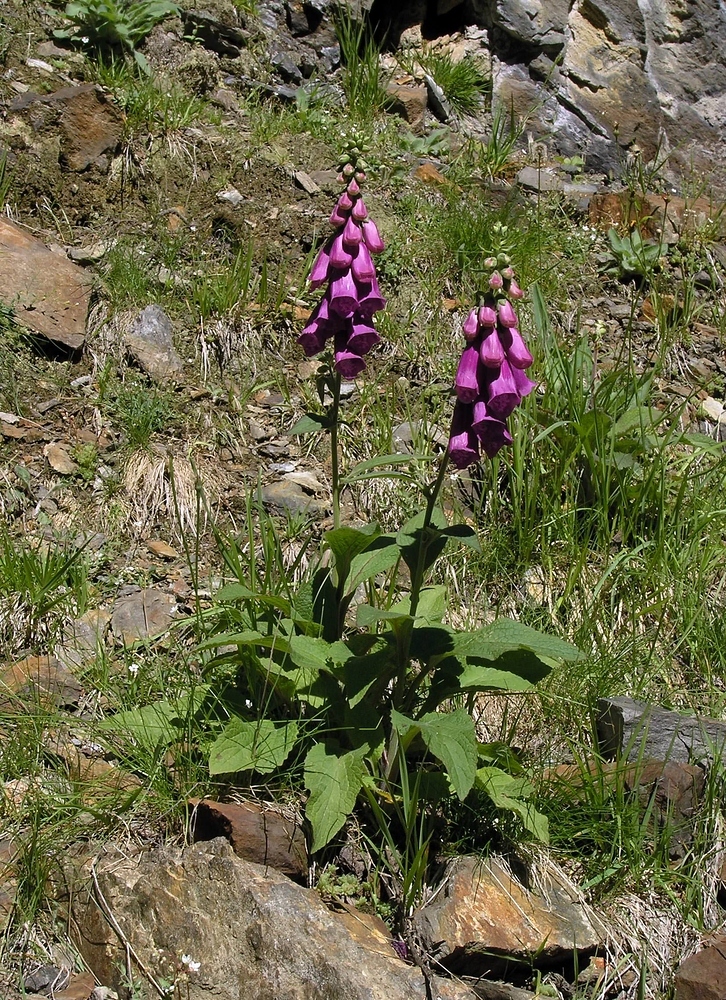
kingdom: Plantae
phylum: Tracheophyta
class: Magnoliopsida
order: Lamiales
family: Plantaginaceae
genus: Digitalis
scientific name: Digitalis purpurea
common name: Foxglove
